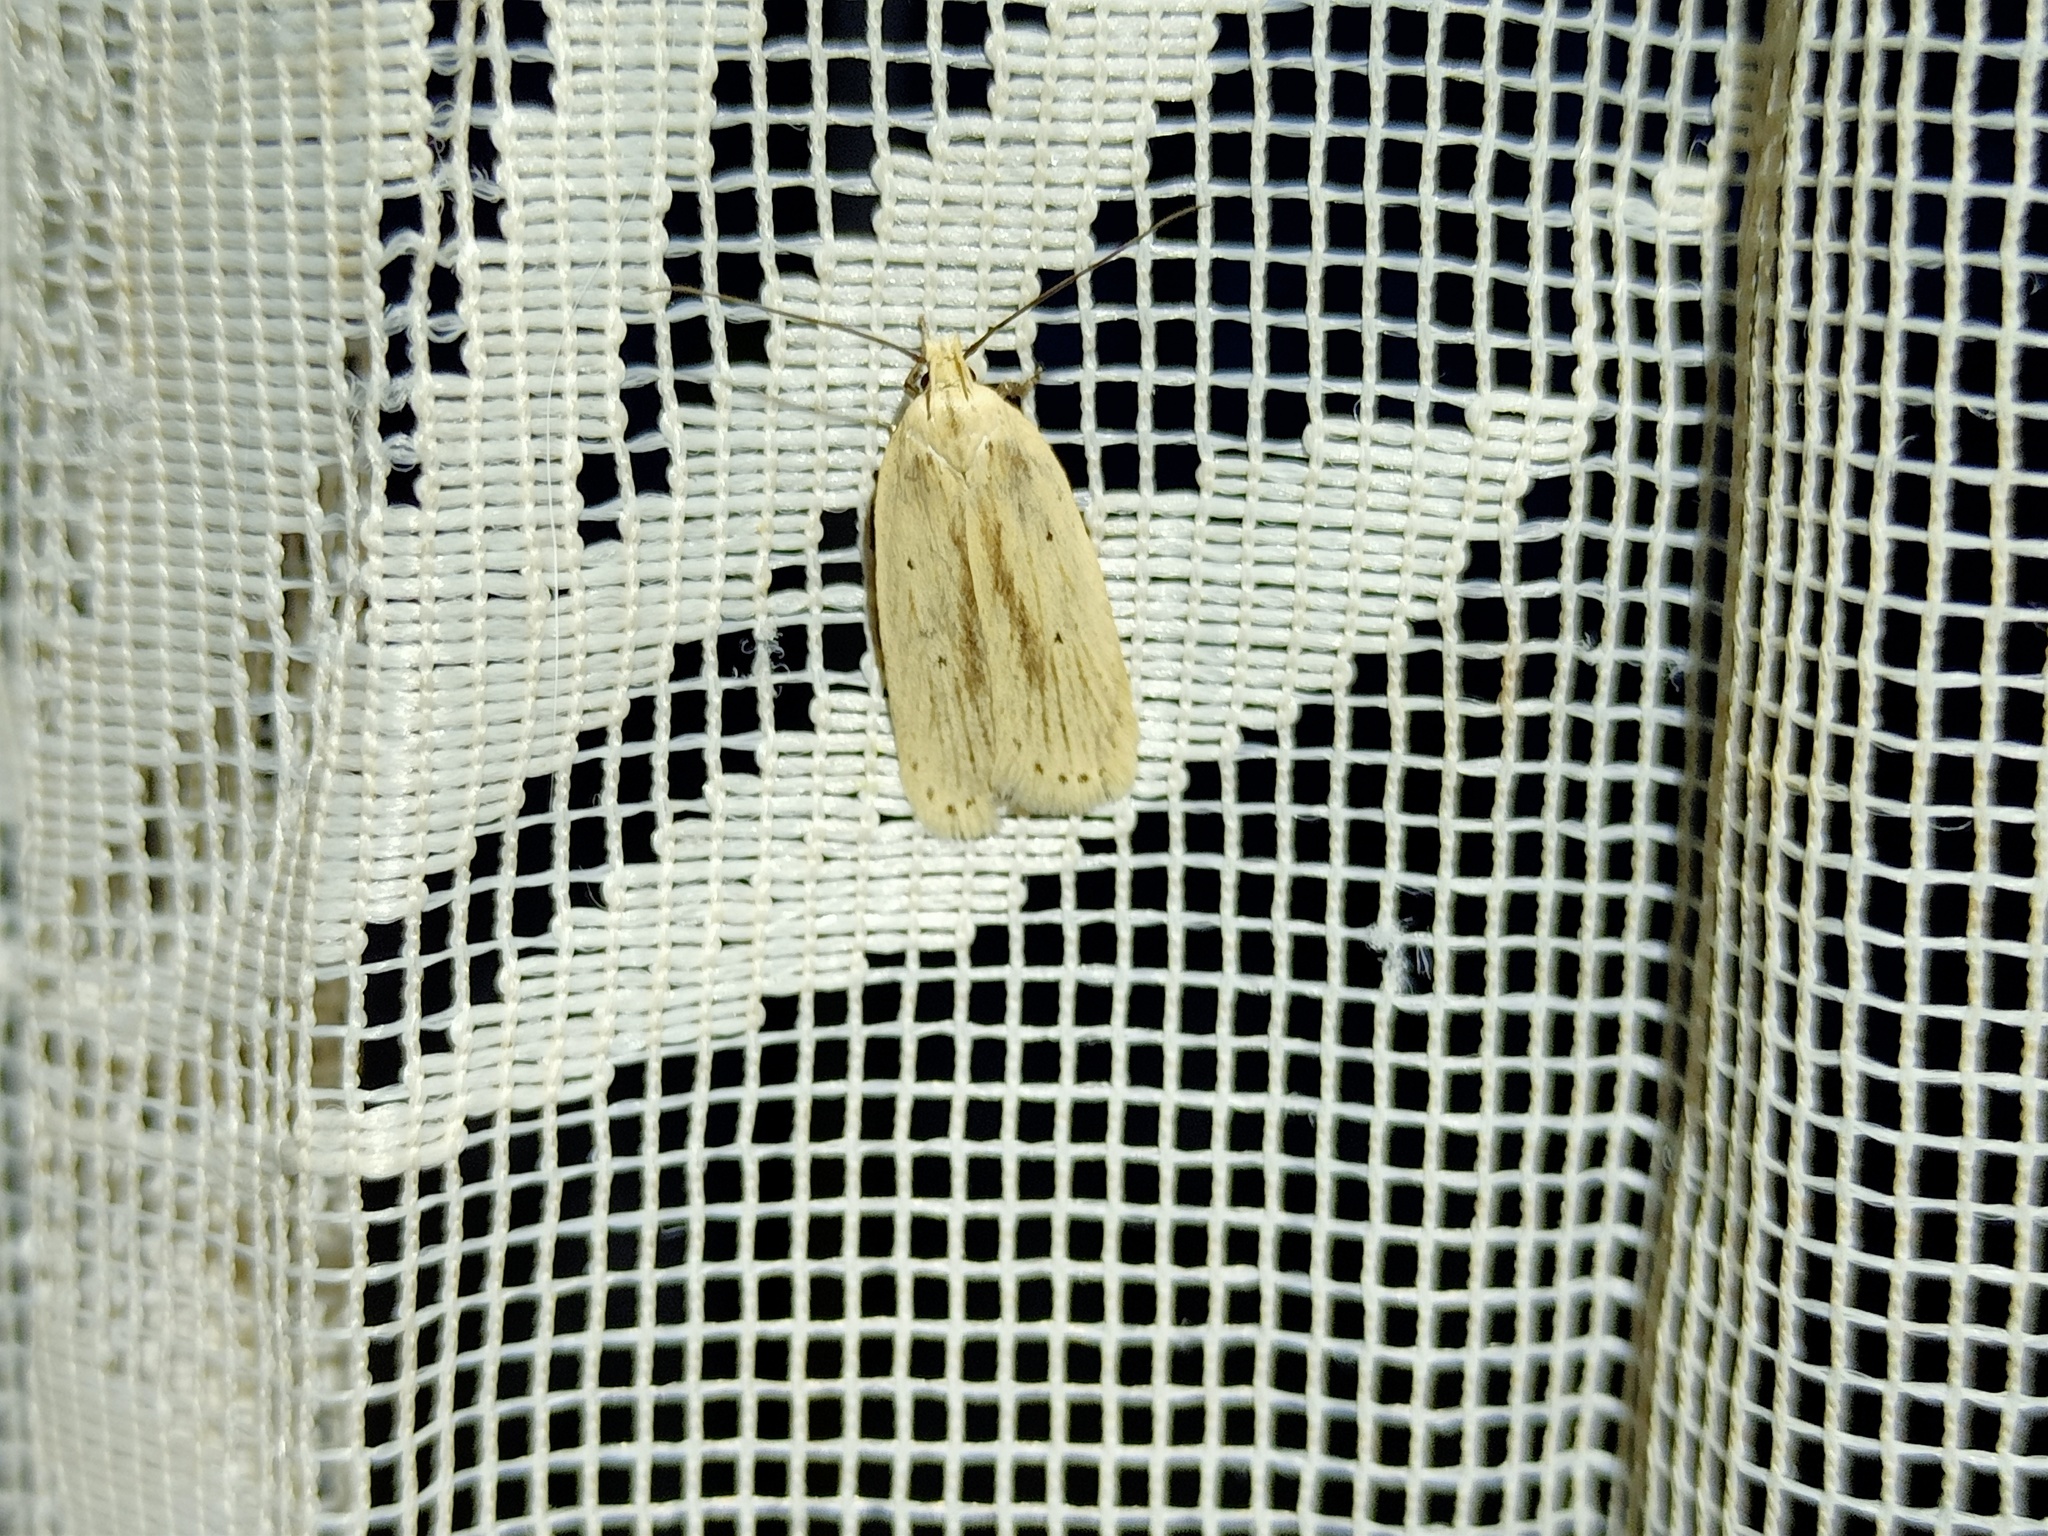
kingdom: Animalia
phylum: Arthropoda
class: Insecta
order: Lepidoptera
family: Depressariidae
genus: Agonopterix
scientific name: Agonopterix pallorella
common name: Pale flat-body
